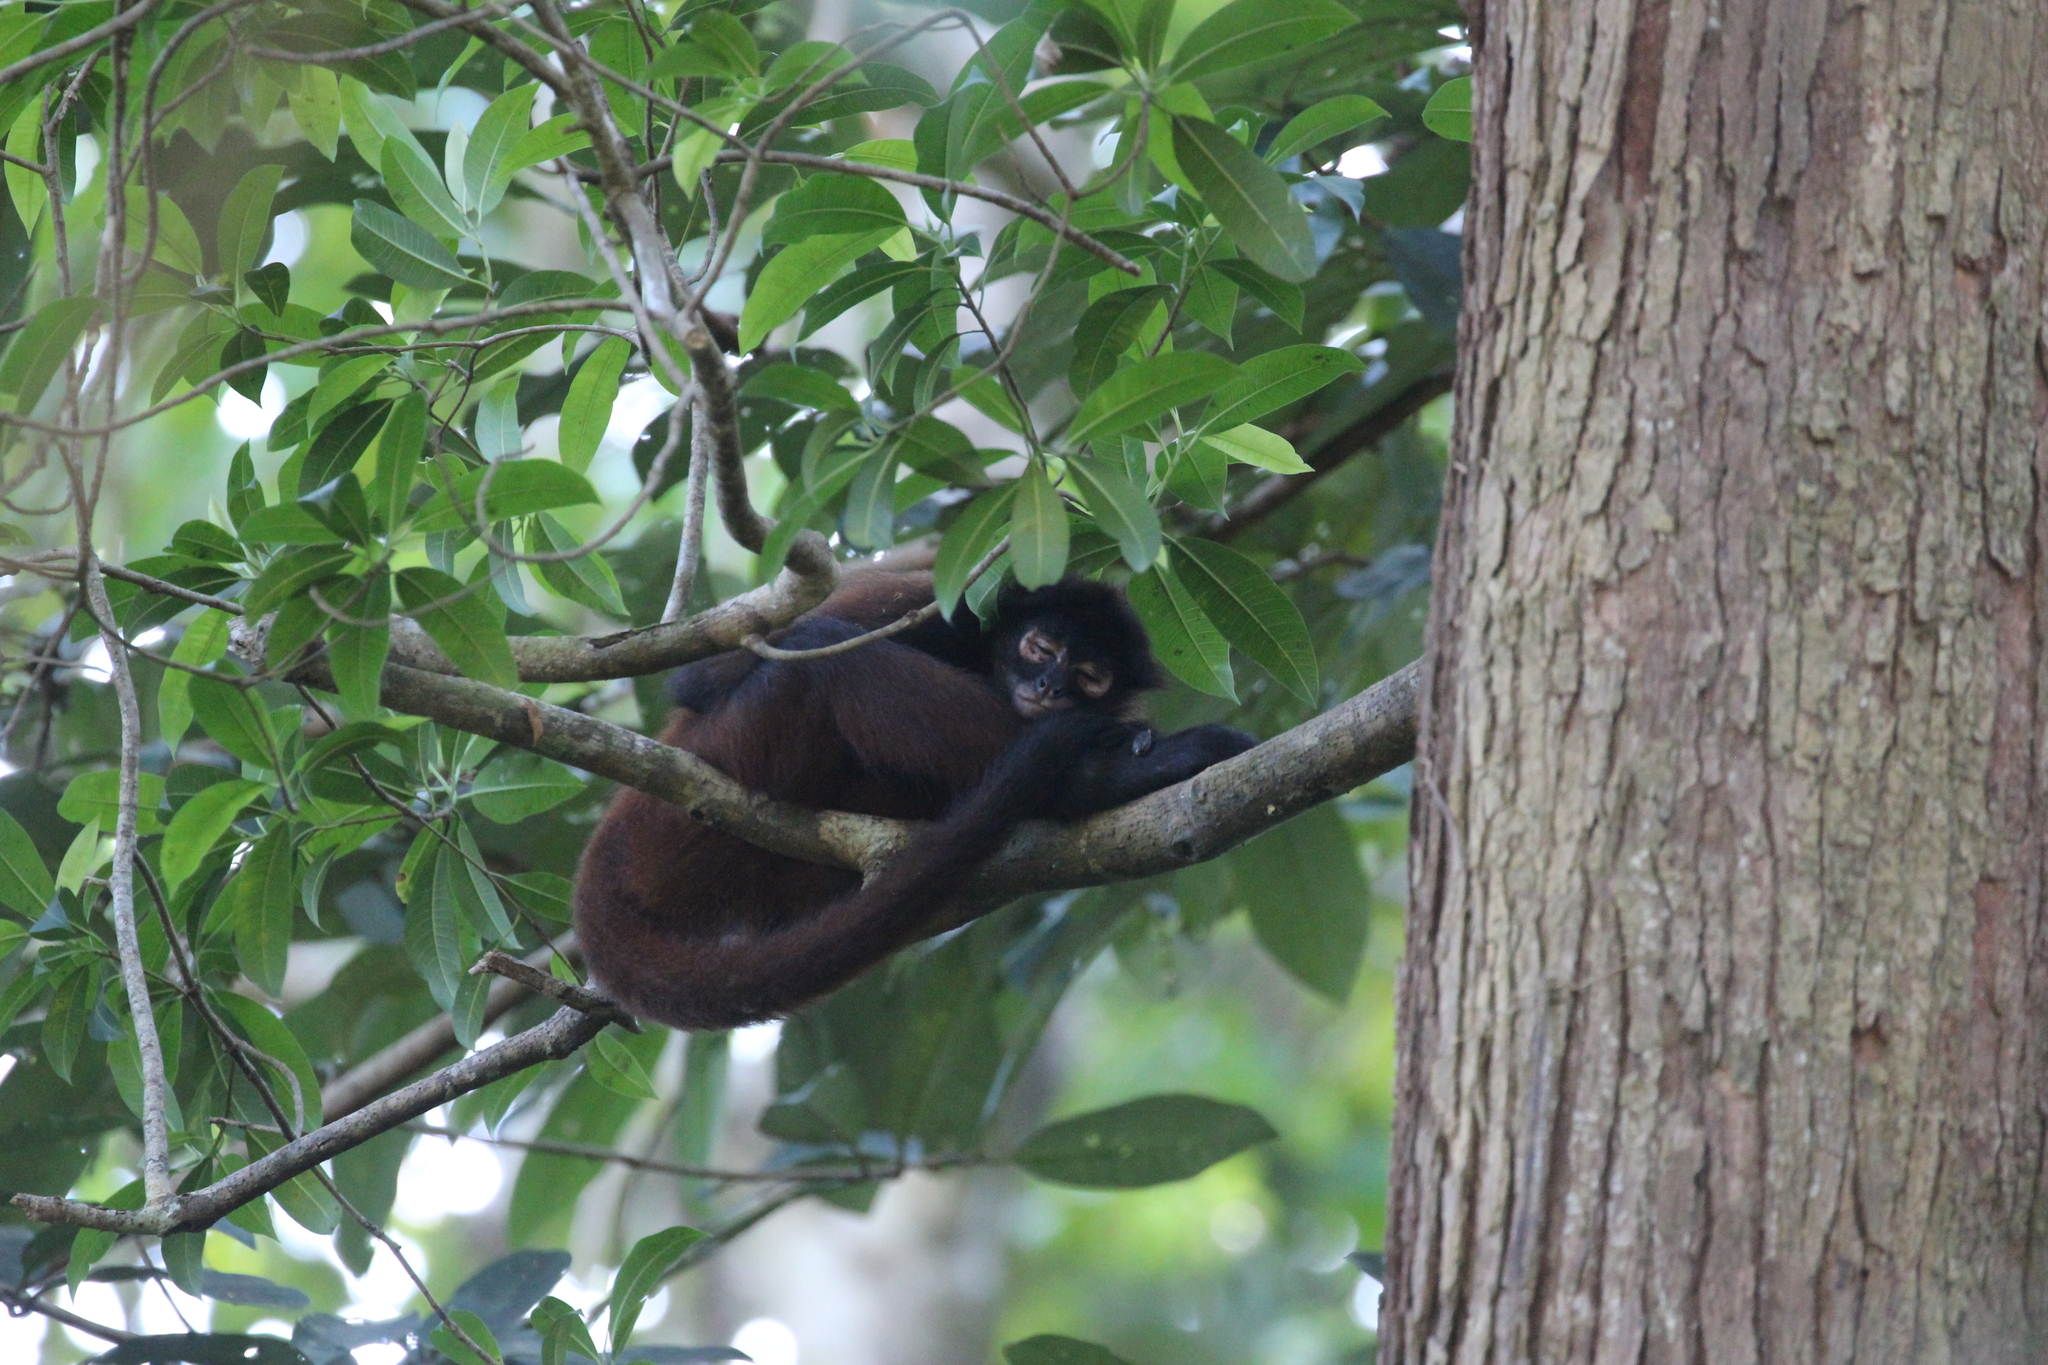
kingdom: Animalia
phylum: Chordata
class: Mammalia
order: Primates
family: Atelidae
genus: Ateles
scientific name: Ateles geoffroyi
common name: Black-handed spider monkey
